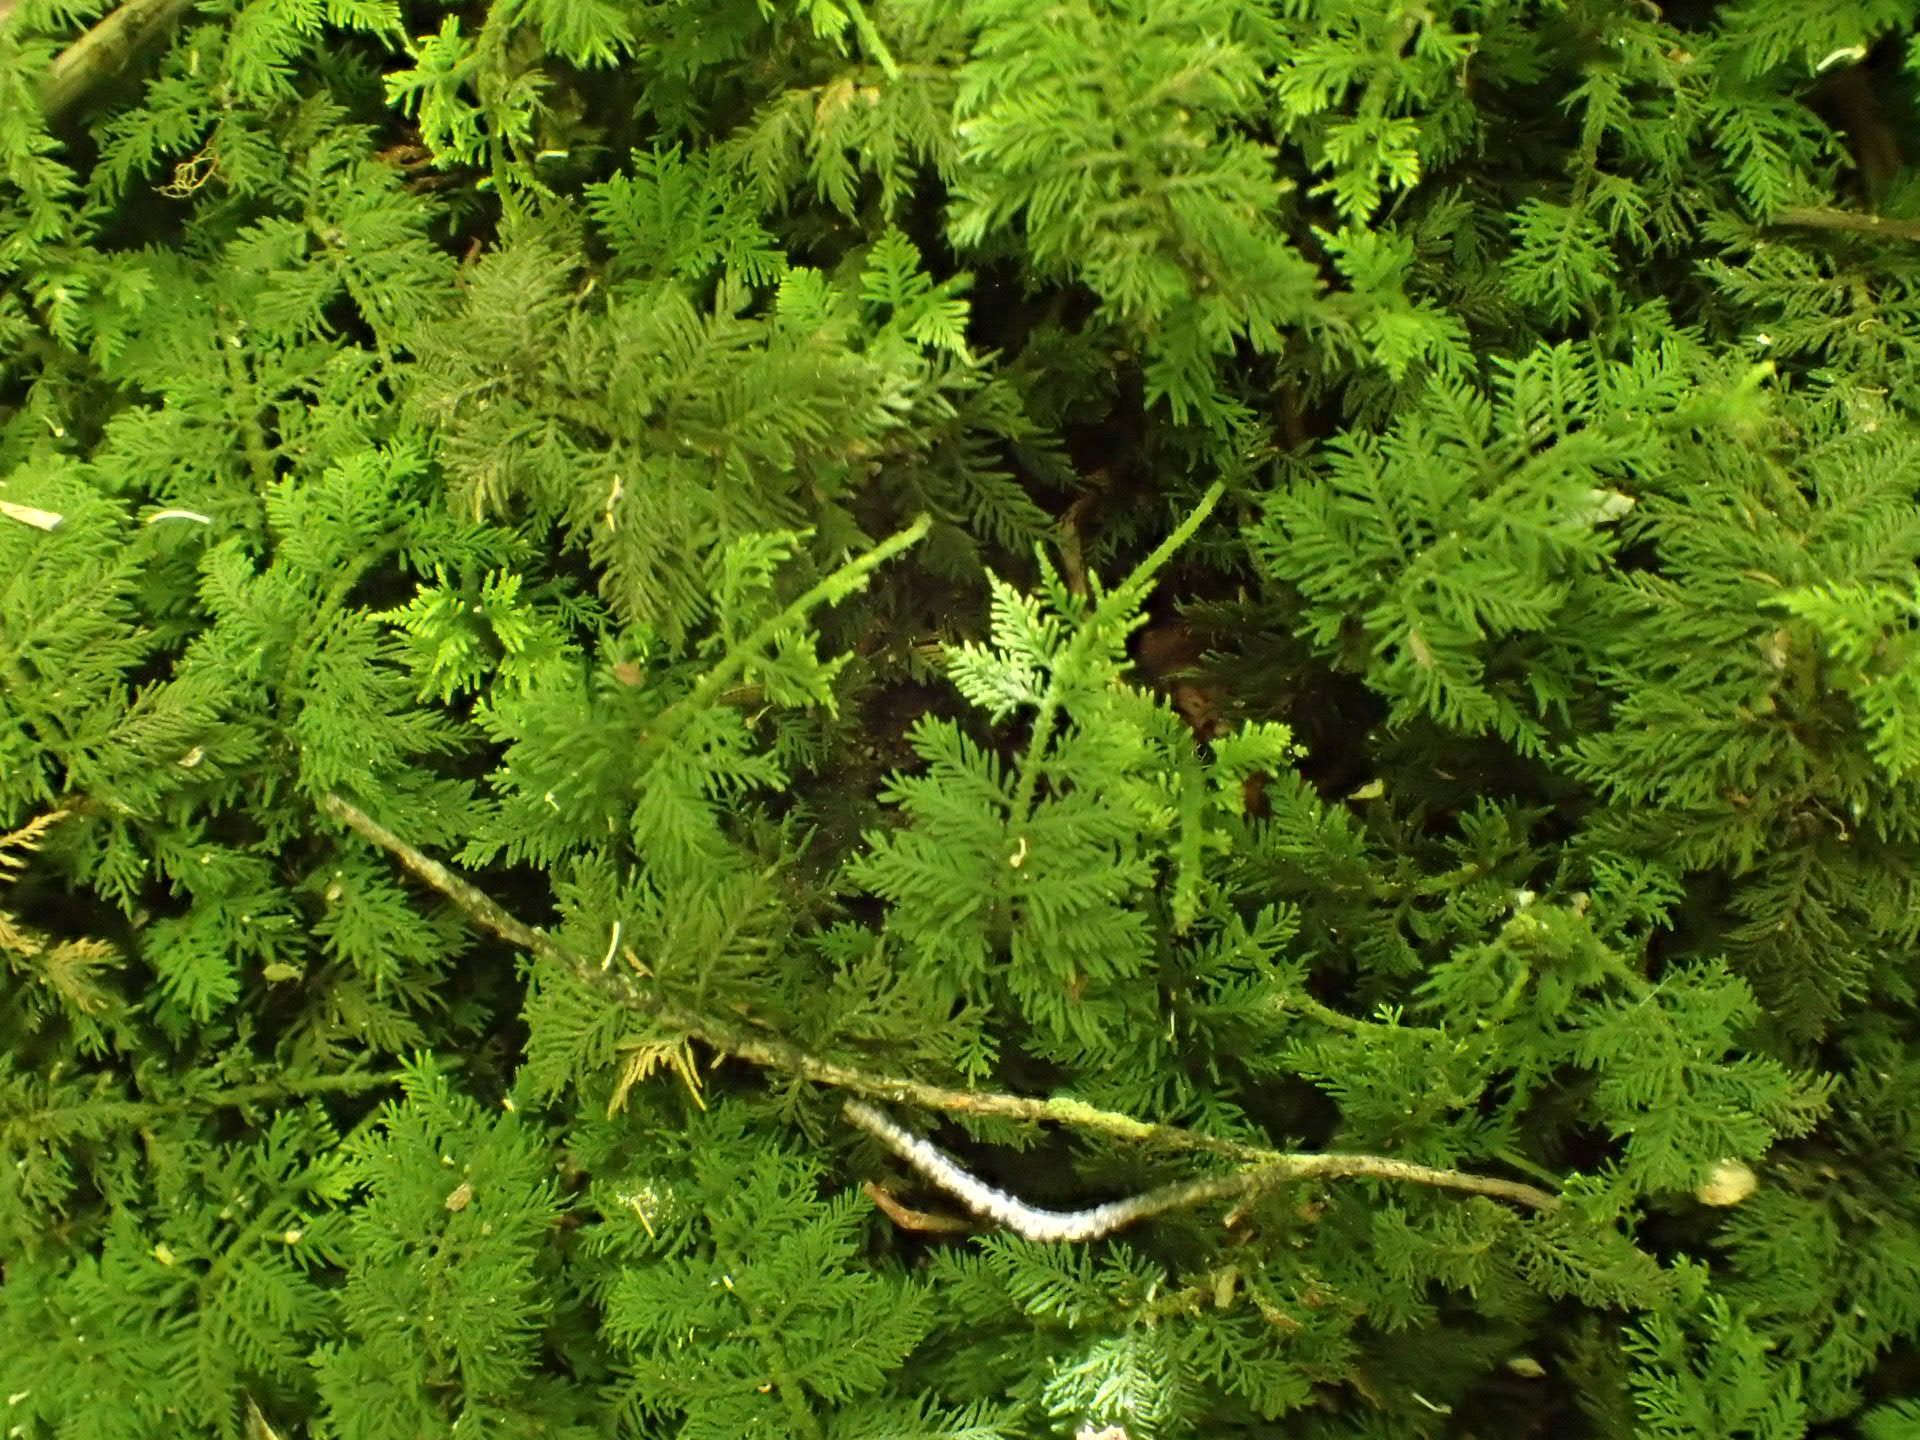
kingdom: Plantae
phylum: Bryophyta
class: Bryopsida
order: Hypnales
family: Thuidiaceae
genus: Thuidiopsis
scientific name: Thuidiopsis furfurosa
